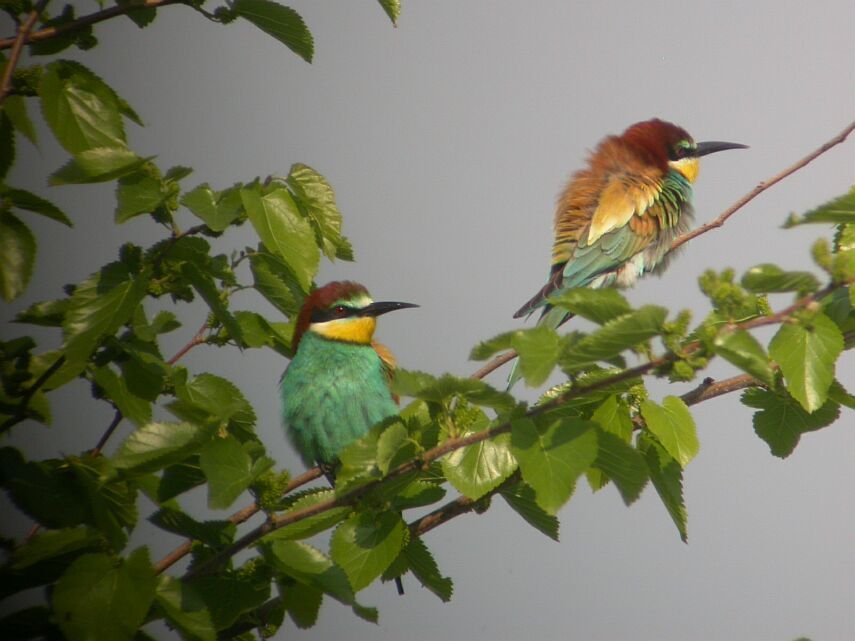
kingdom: Animalia
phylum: Chordata
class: Aves
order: Coraciiformes
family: Meropidae
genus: Merops
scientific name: Merops apiaster
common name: European bee-eater
